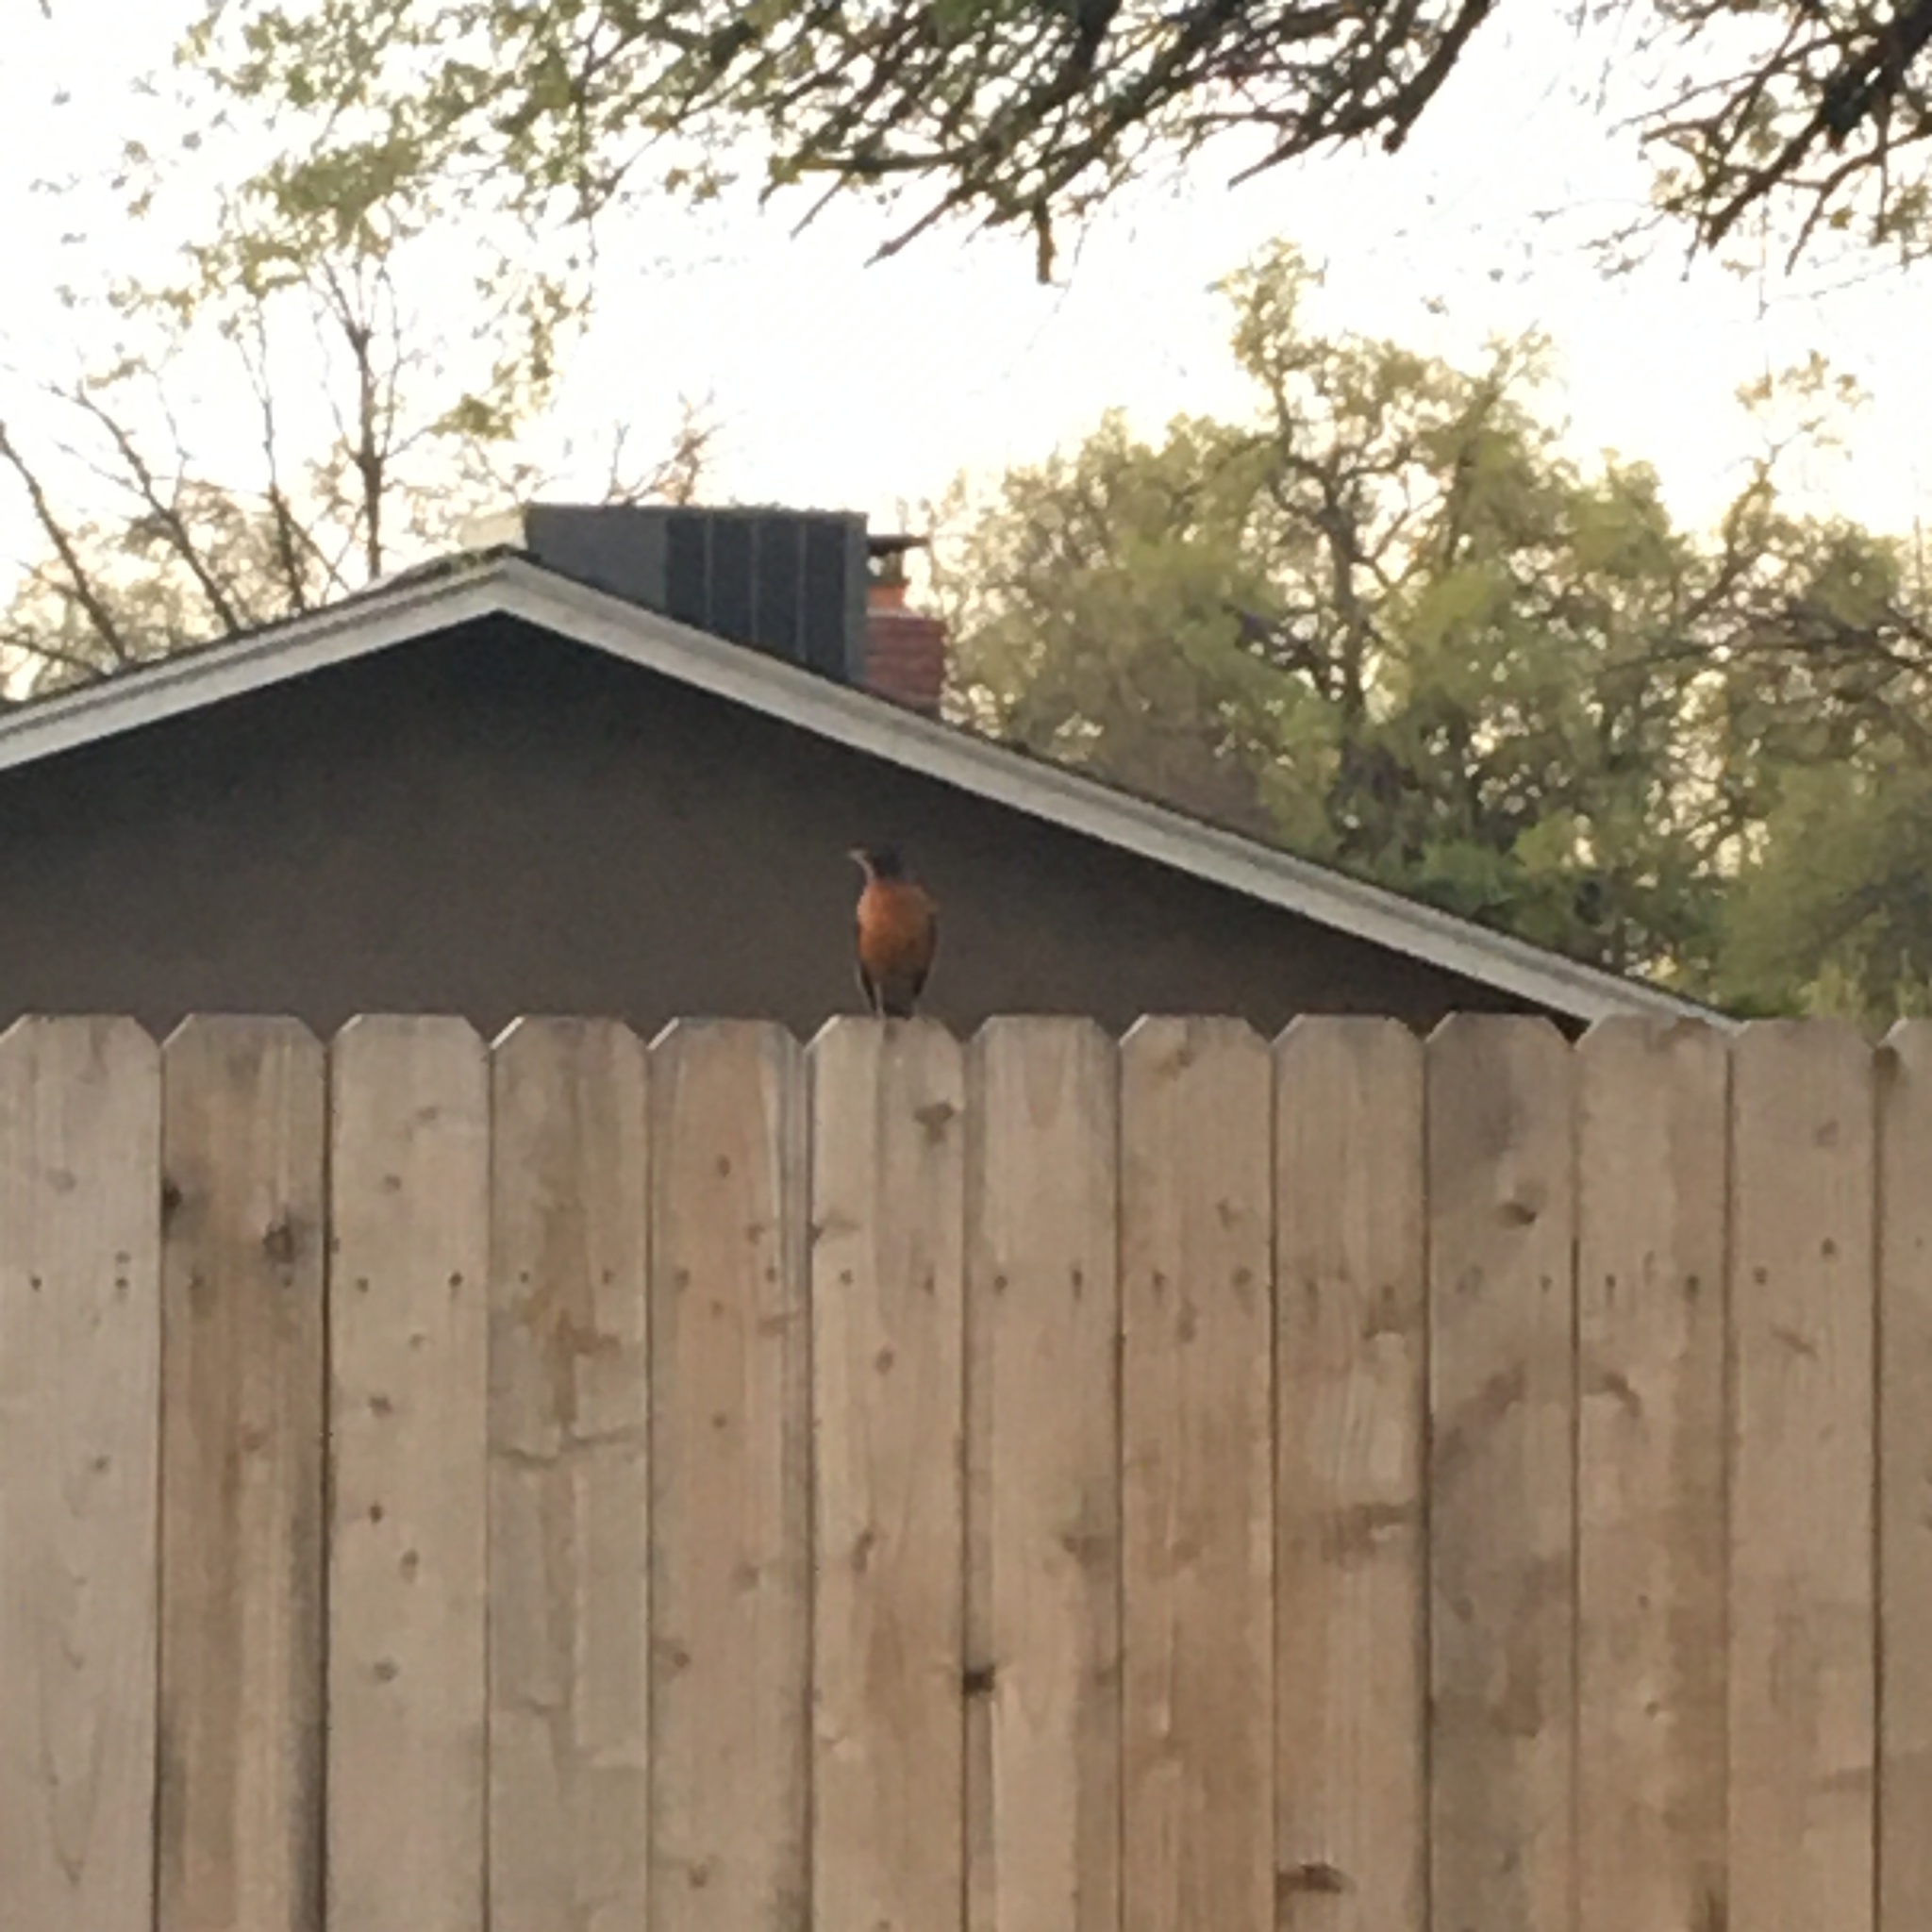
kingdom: Animalia
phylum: Chordata
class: Aves
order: Passeriformes
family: Turdidae
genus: Turdus
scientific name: Turdus migratorius
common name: American robin
